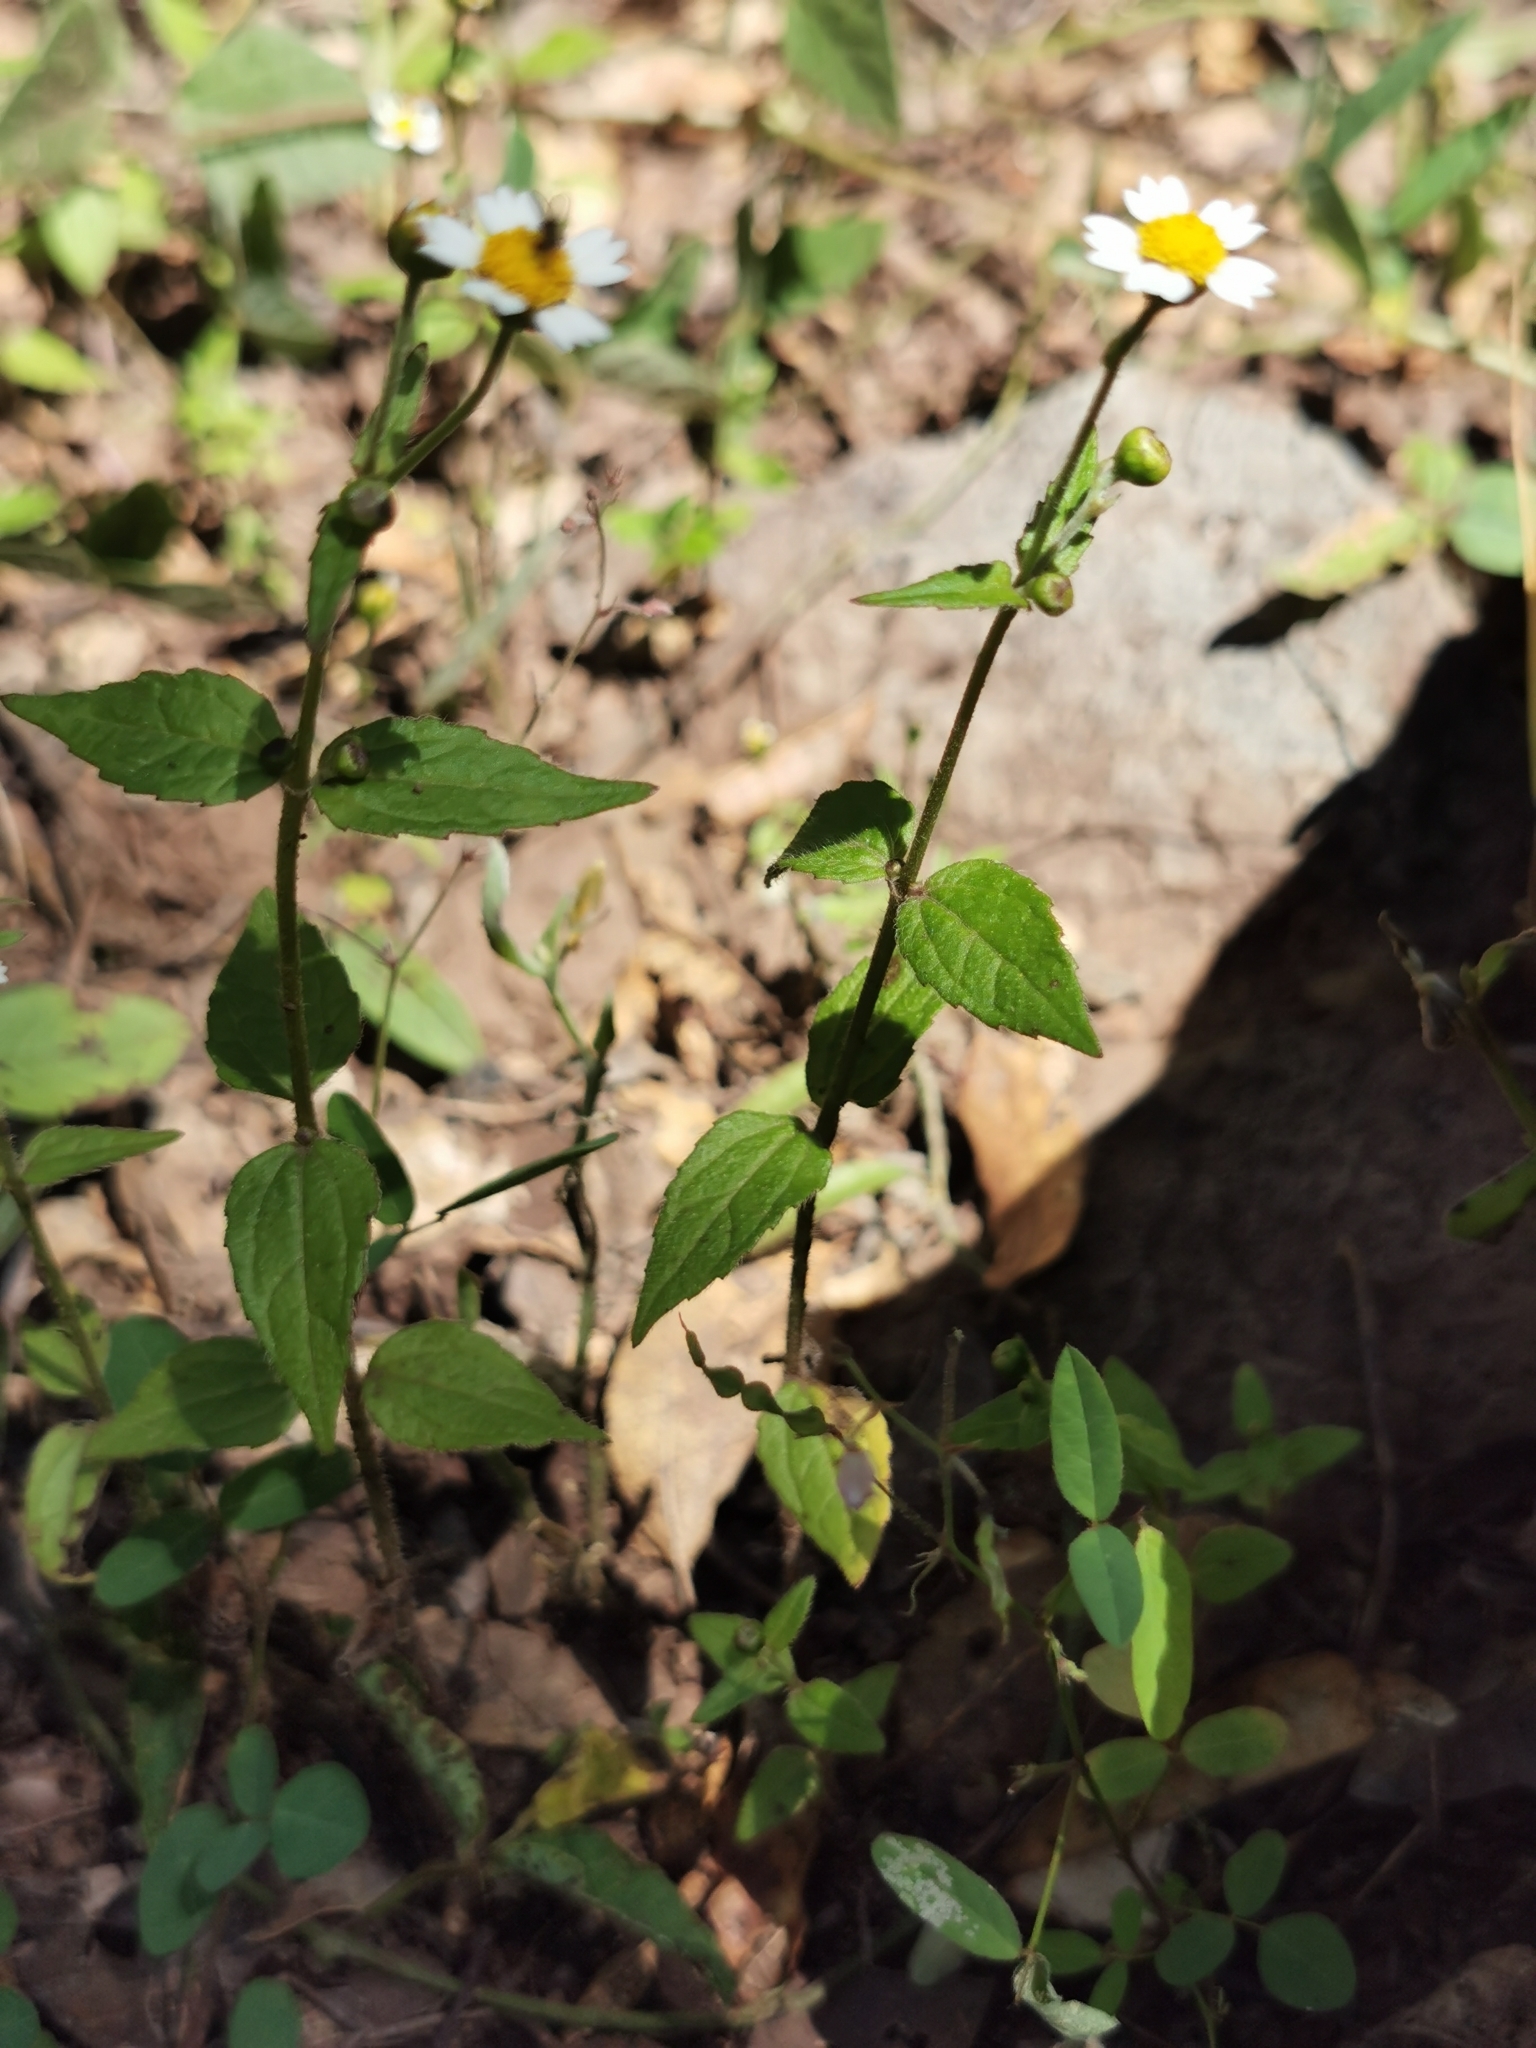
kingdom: Plantae
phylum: Tracheophyta
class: Magnoliopsida
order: Asterales
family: Asteraceae
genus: Galinsoga
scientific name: Galinsoga quadriradiata
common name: Shaggy soldier
